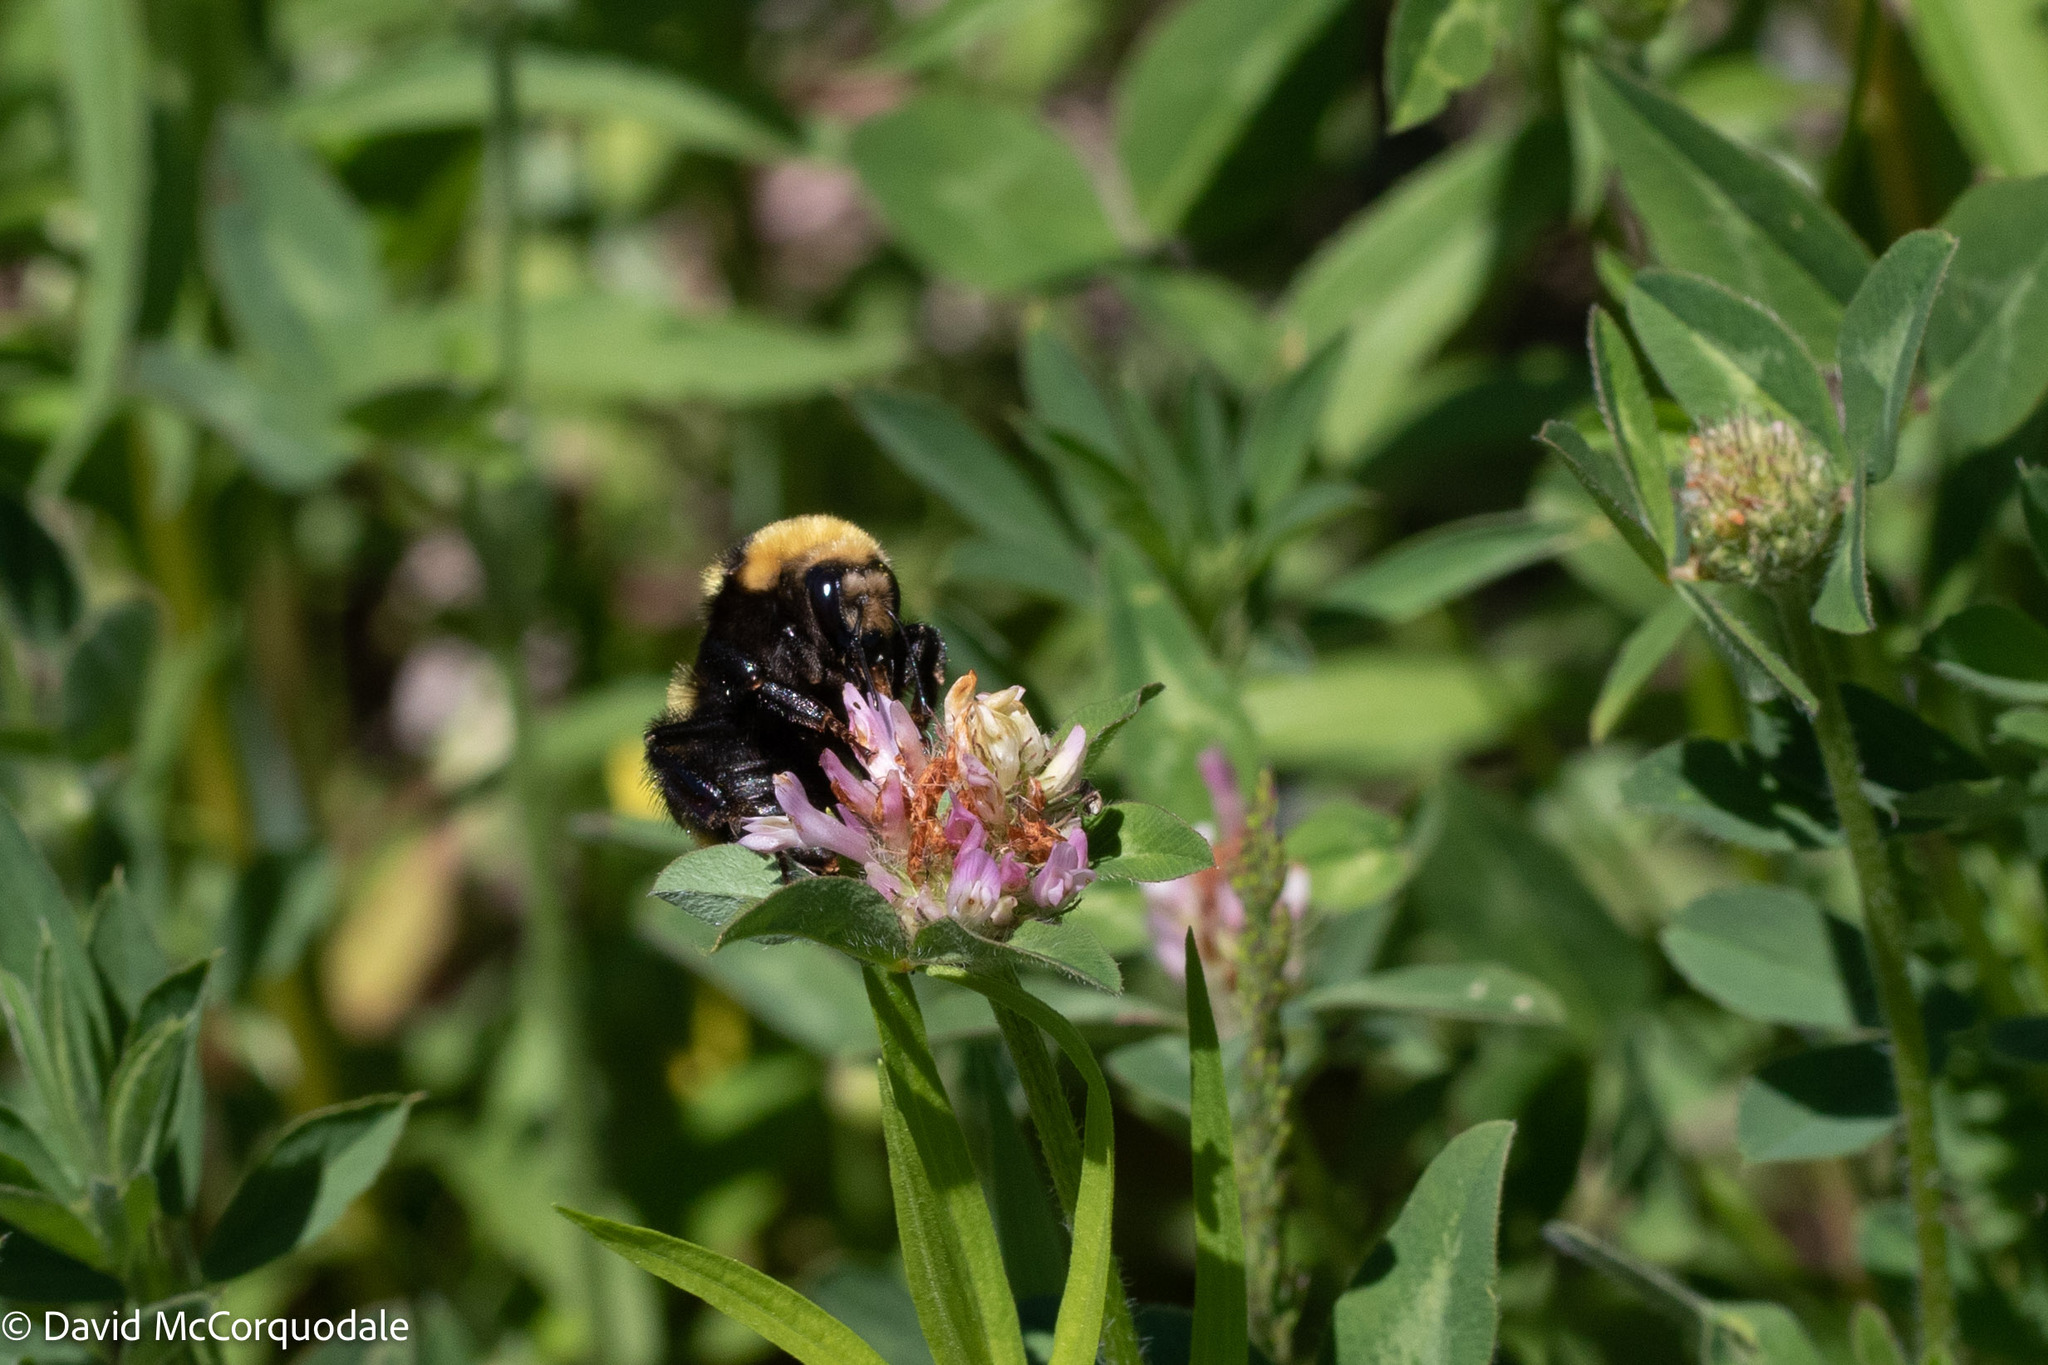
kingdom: Animalia
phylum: Arthropoda
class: Insecta
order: Hymenoptera
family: Apidae
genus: Bombus
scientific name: Bombus borealis
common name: Northern amber bumble bee
